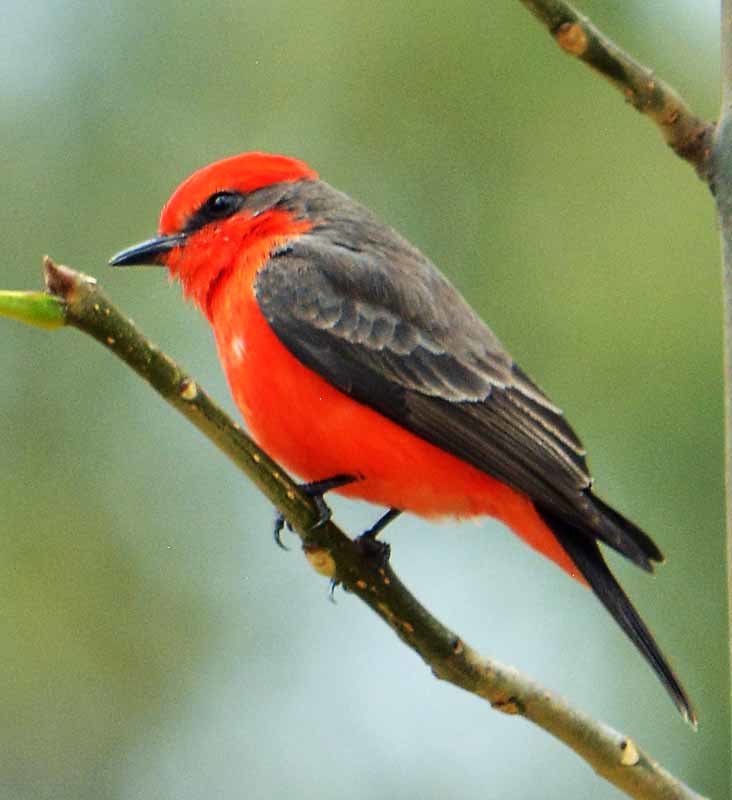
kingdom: Animalia
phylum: Chordata
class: Aves
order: Passeriformes
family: Tyrannidae
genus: Pyrocephalus
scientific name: Pyrocephalus rubinus
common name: Vermilion flycatcher
